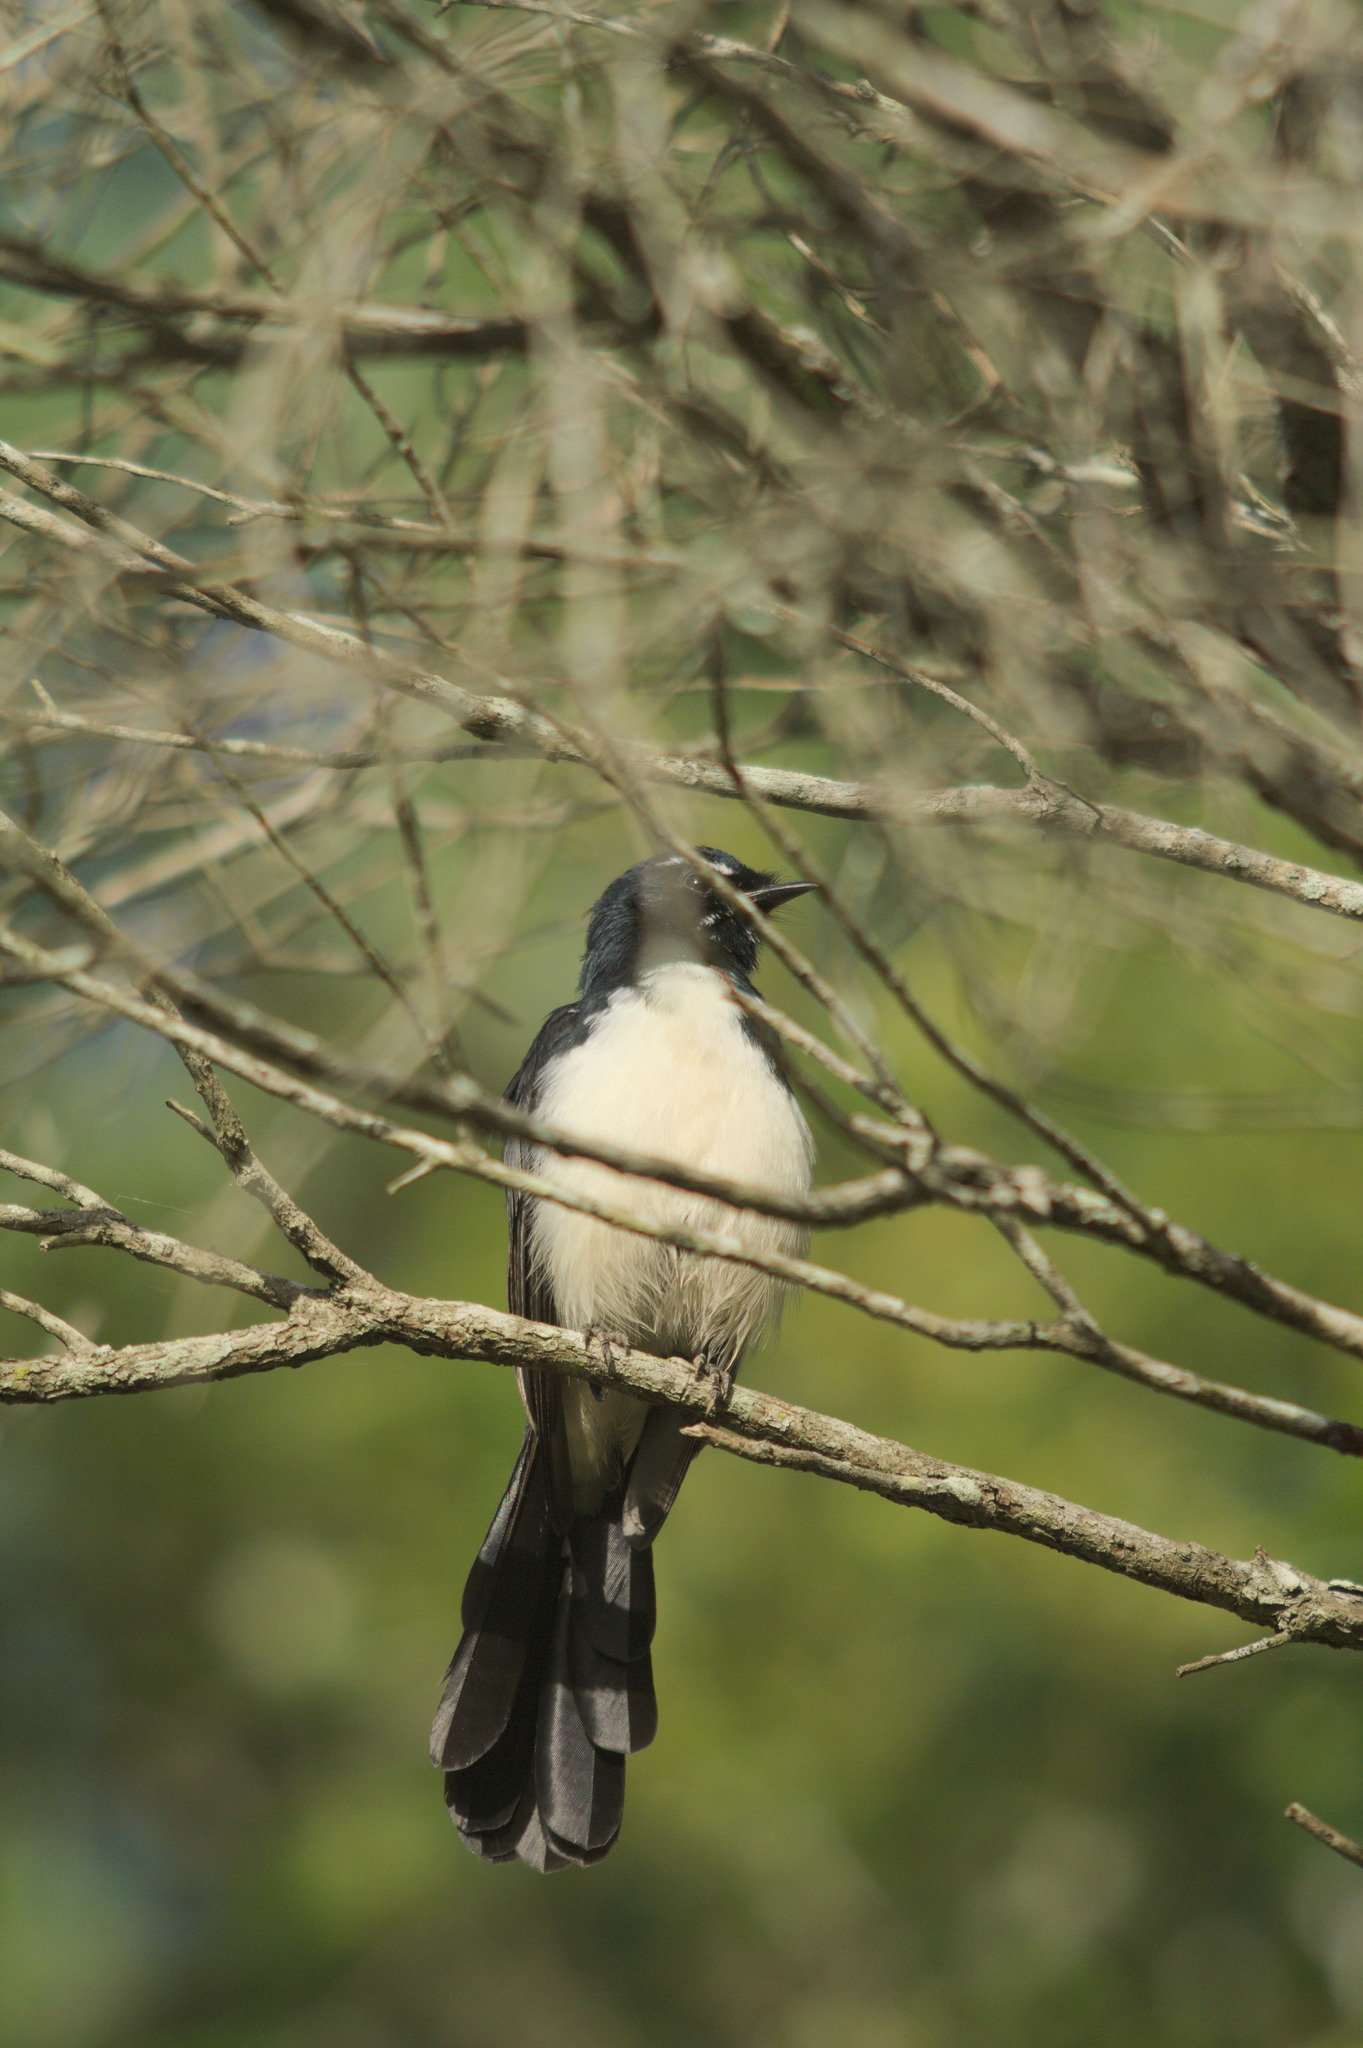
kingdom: Animalia
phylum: Chordata
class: Aves
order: Passeriformes
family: Rhipiduridae
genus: Rhipidura
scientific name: Rhipidura leucophrys
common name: Willie wagtail
